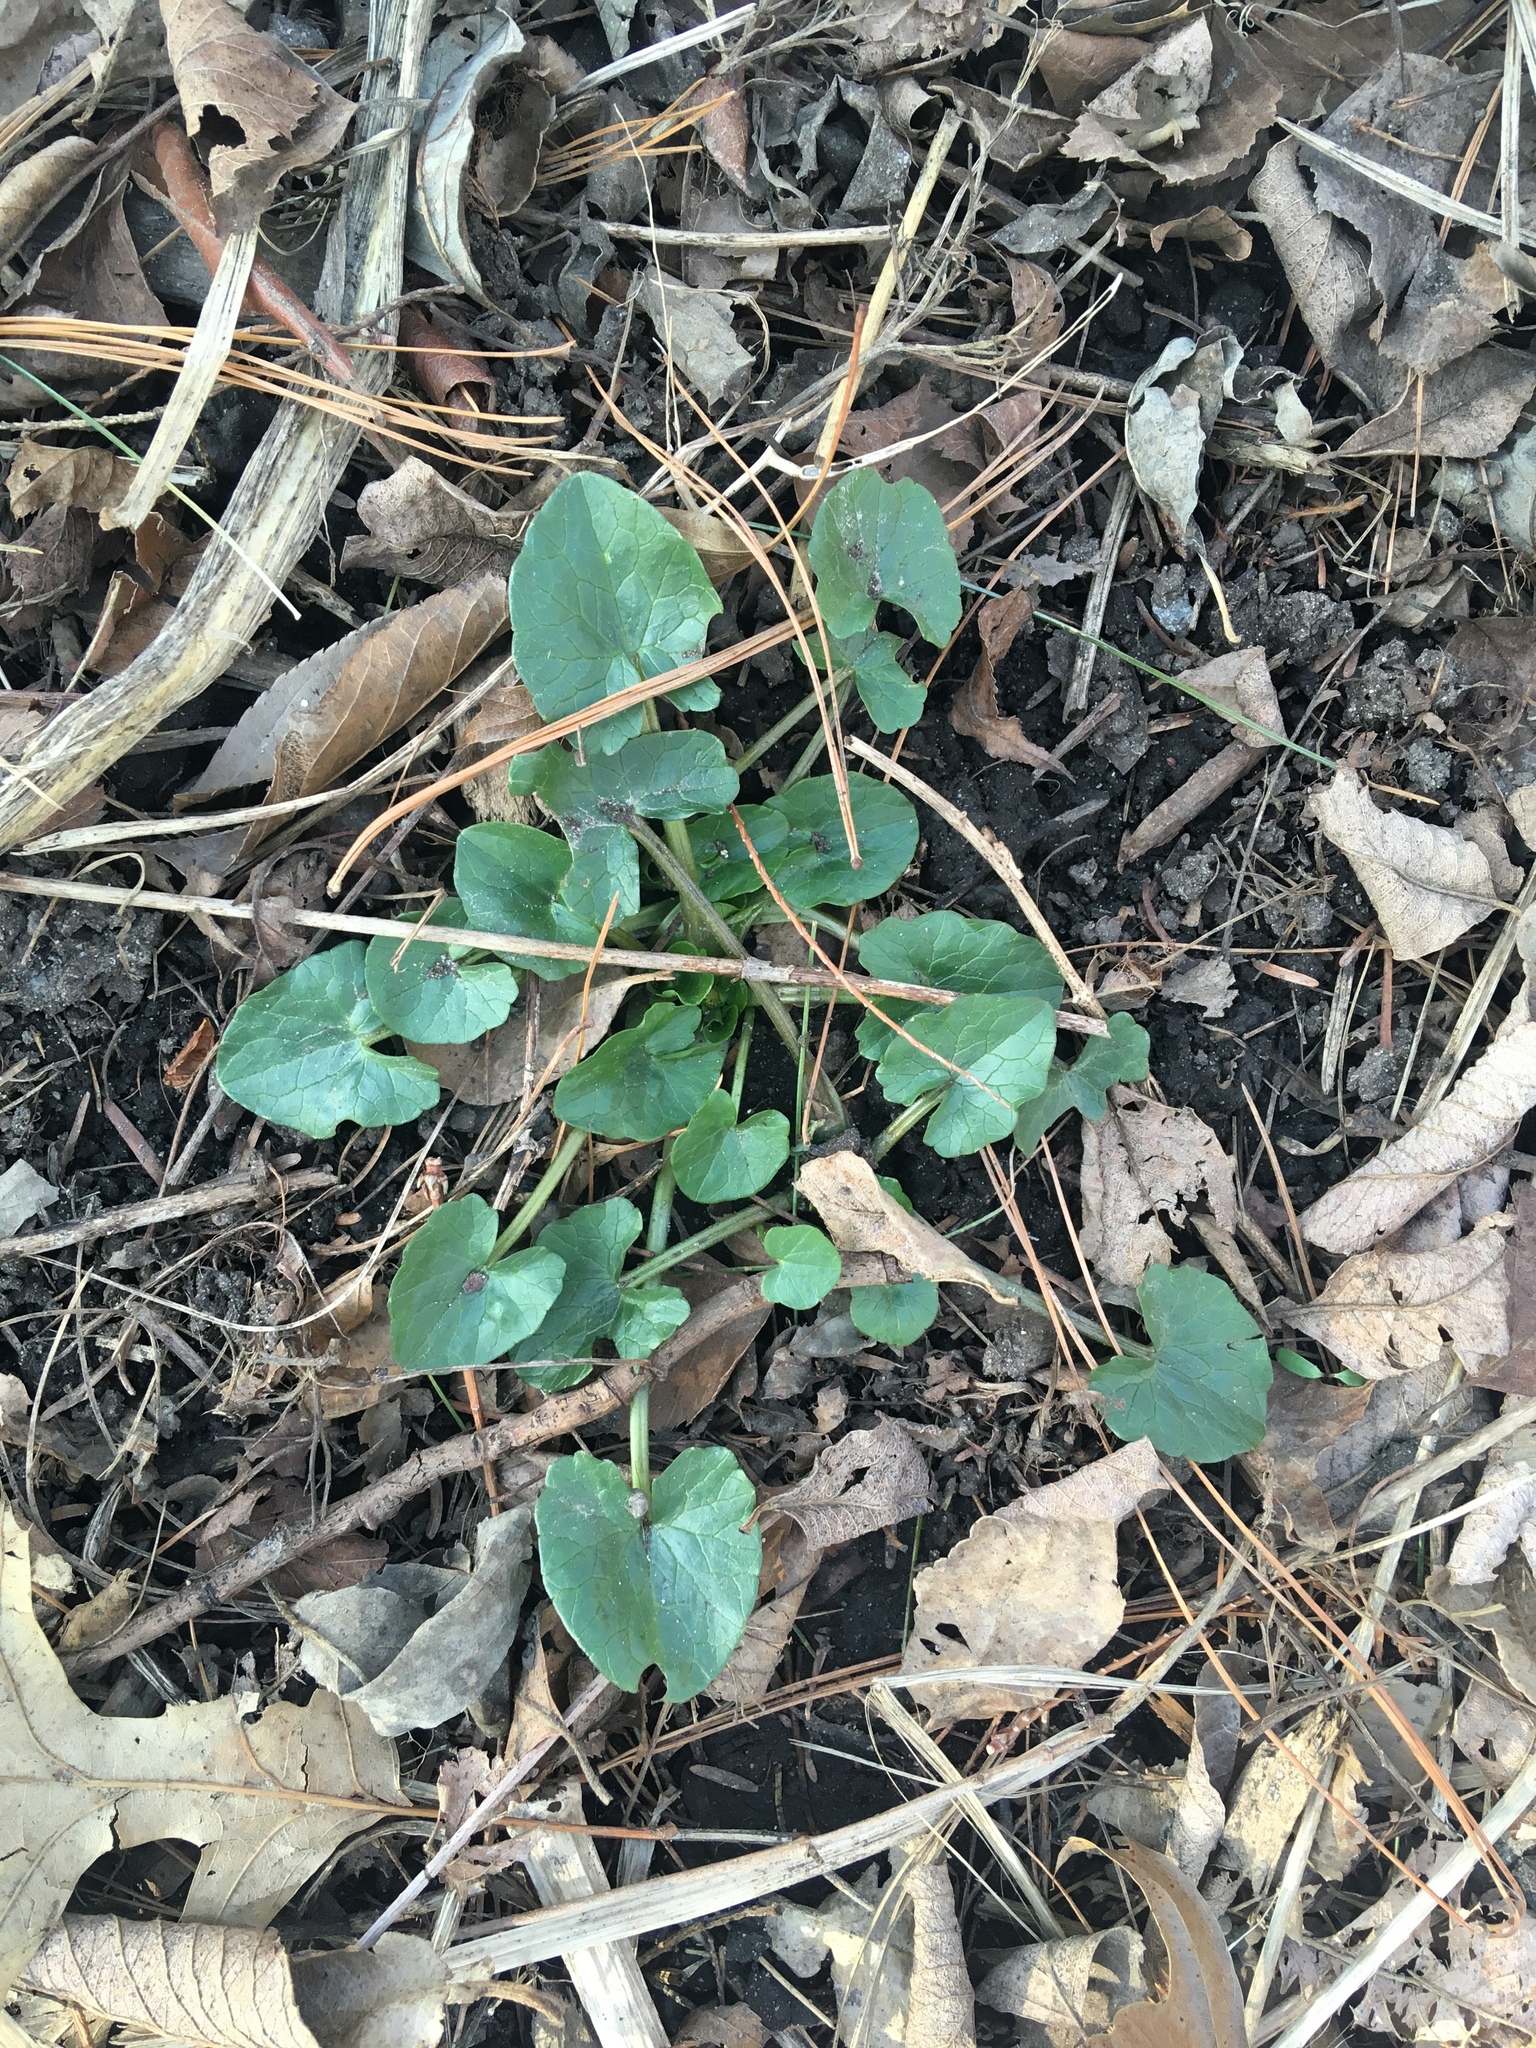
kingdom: Plantae
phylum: Tracheophyta
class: Magnoliopsida
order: Ranunculales
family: Ranunculaceae
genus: Ficaria
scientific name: Ficaria verna
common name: Lesser celandine
